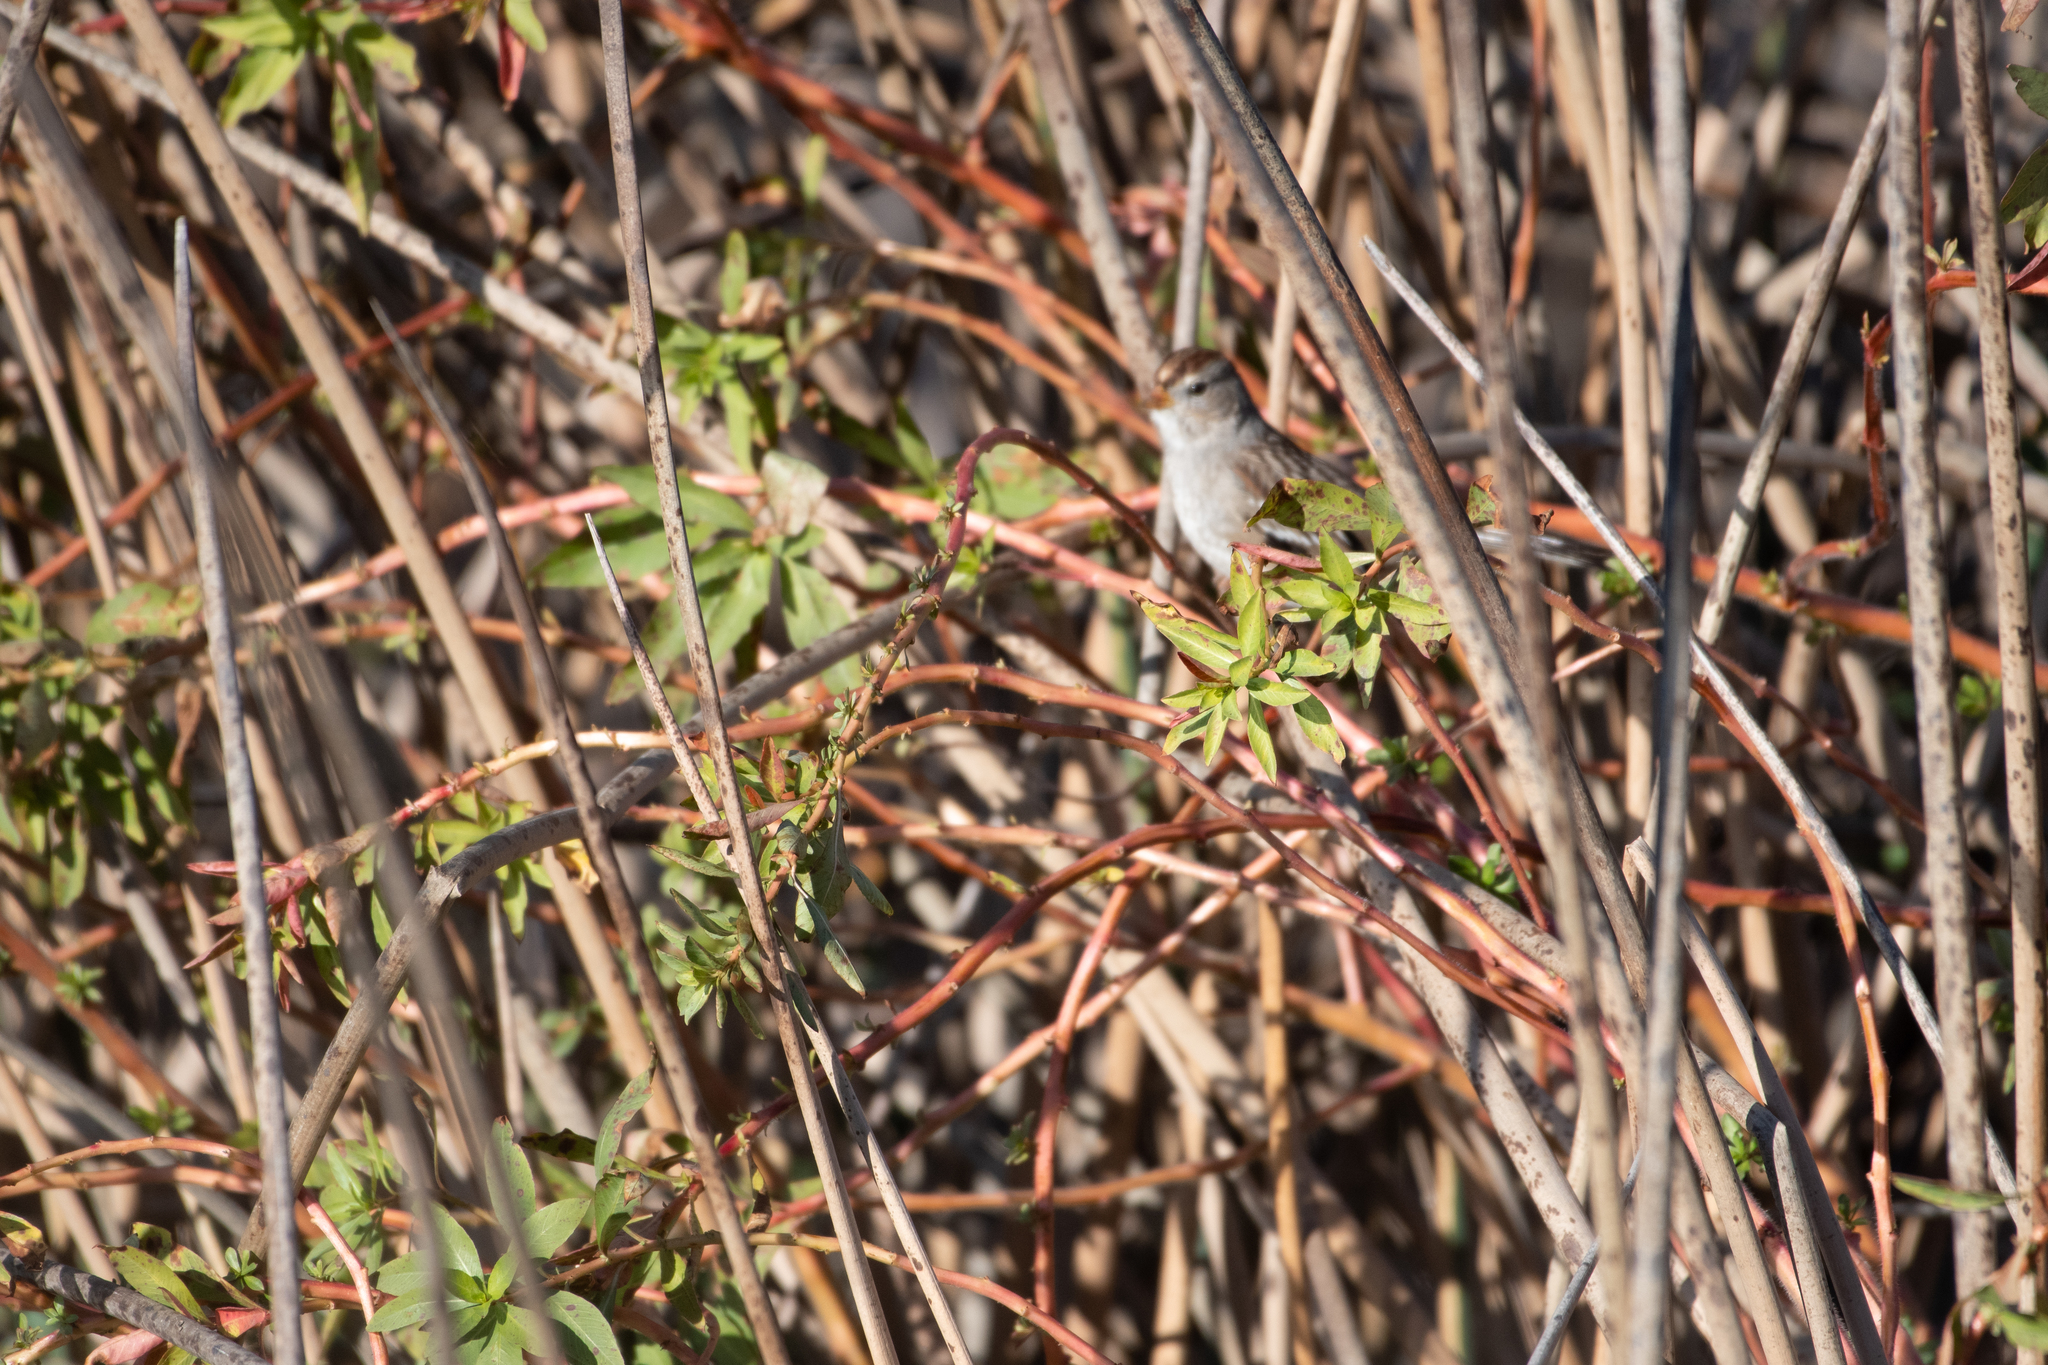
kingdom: Animalia
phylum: Chordata
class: Aves
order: Passeriformes
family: Passerellidae
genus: Zonotrichia
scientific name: Zonotrichia leucophrys
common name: White-crowned sparrow
